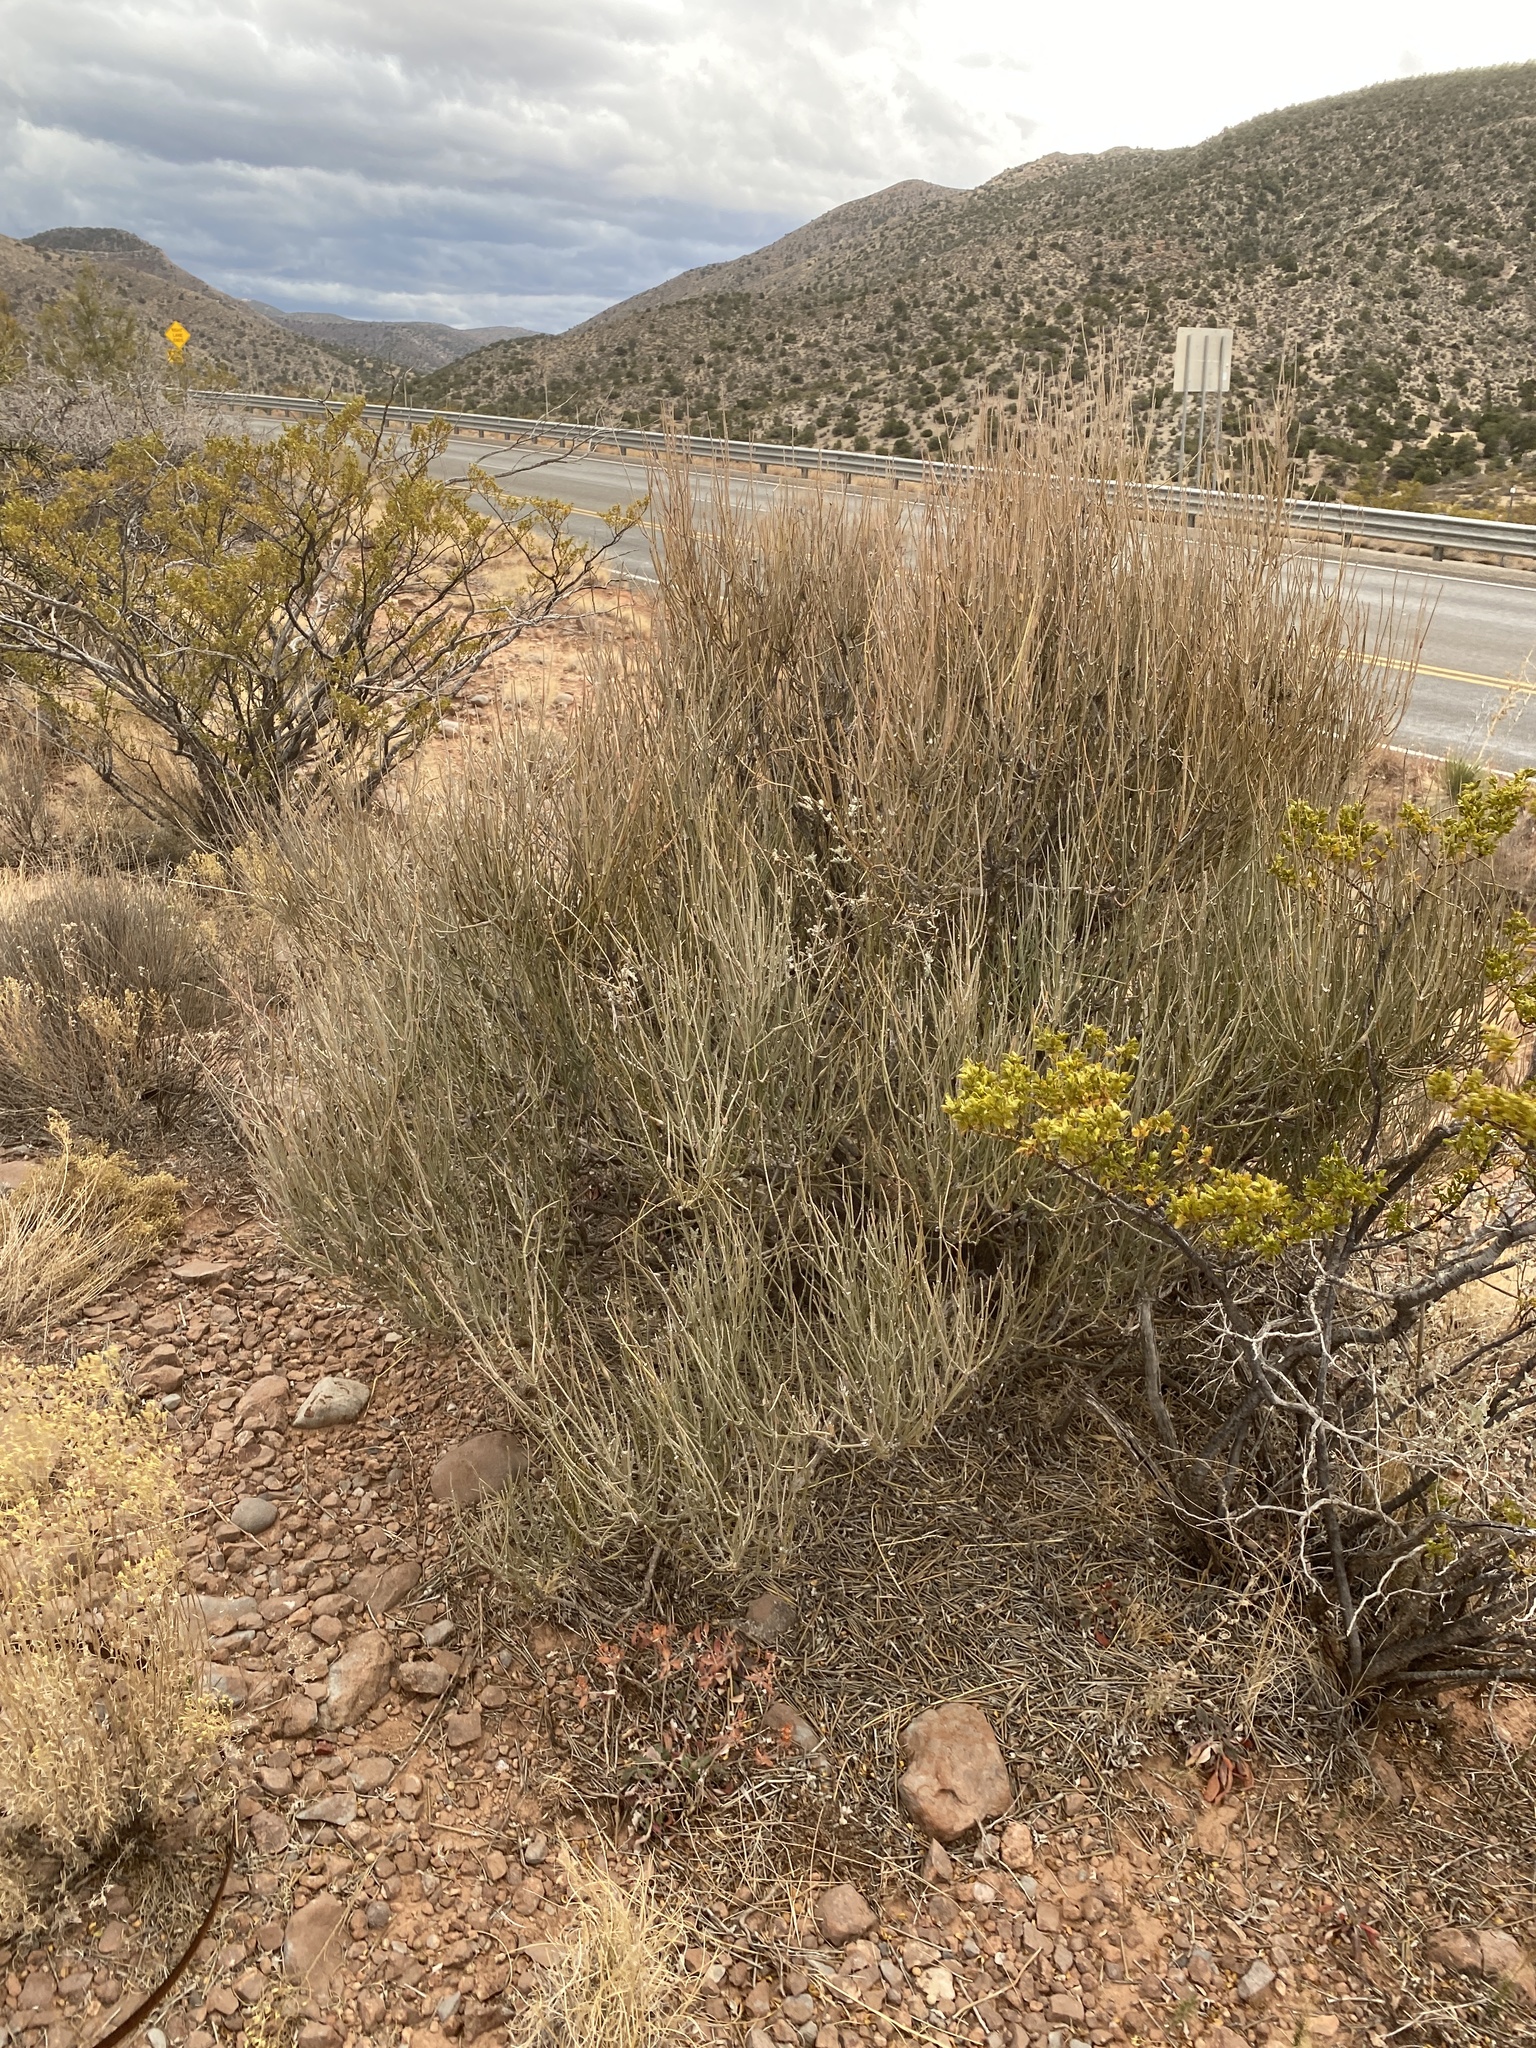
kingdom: Plantae
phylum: Tracheophyta
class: Gnetopsida
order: Ephedrales
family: Ephedraceae
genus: Ephedra
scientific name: Ephedra trifurca
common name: Mexican-tea
